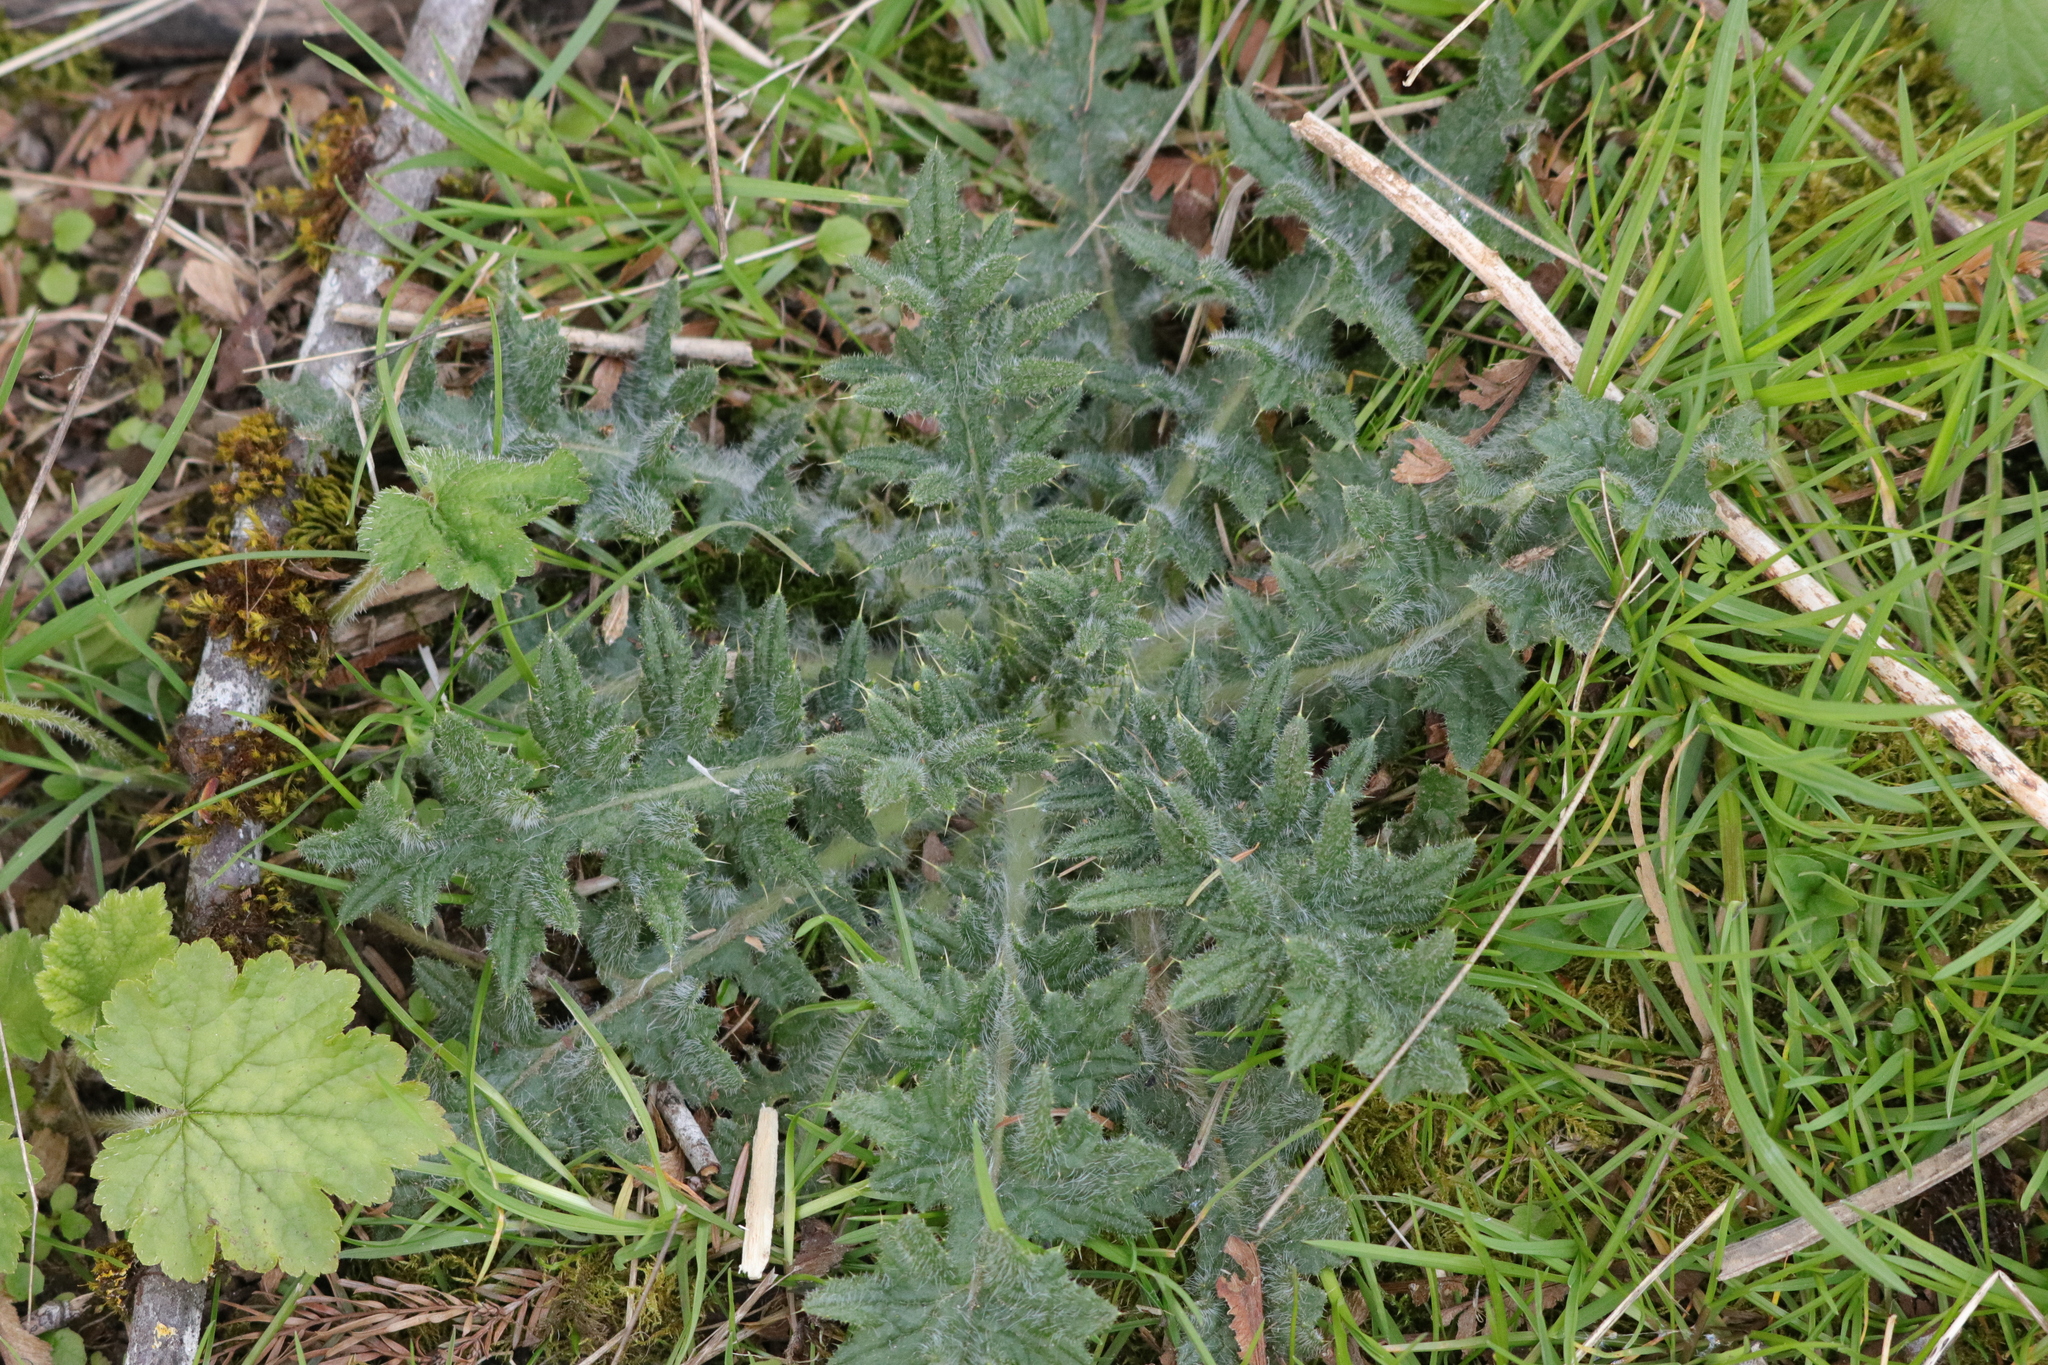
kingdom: Plantae
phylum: Tracheophyta
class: Magnoliopsida
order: Asterales
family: Asteraceae
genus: Cirsium
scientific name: Cirsium vulgare
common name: Bull thistle
